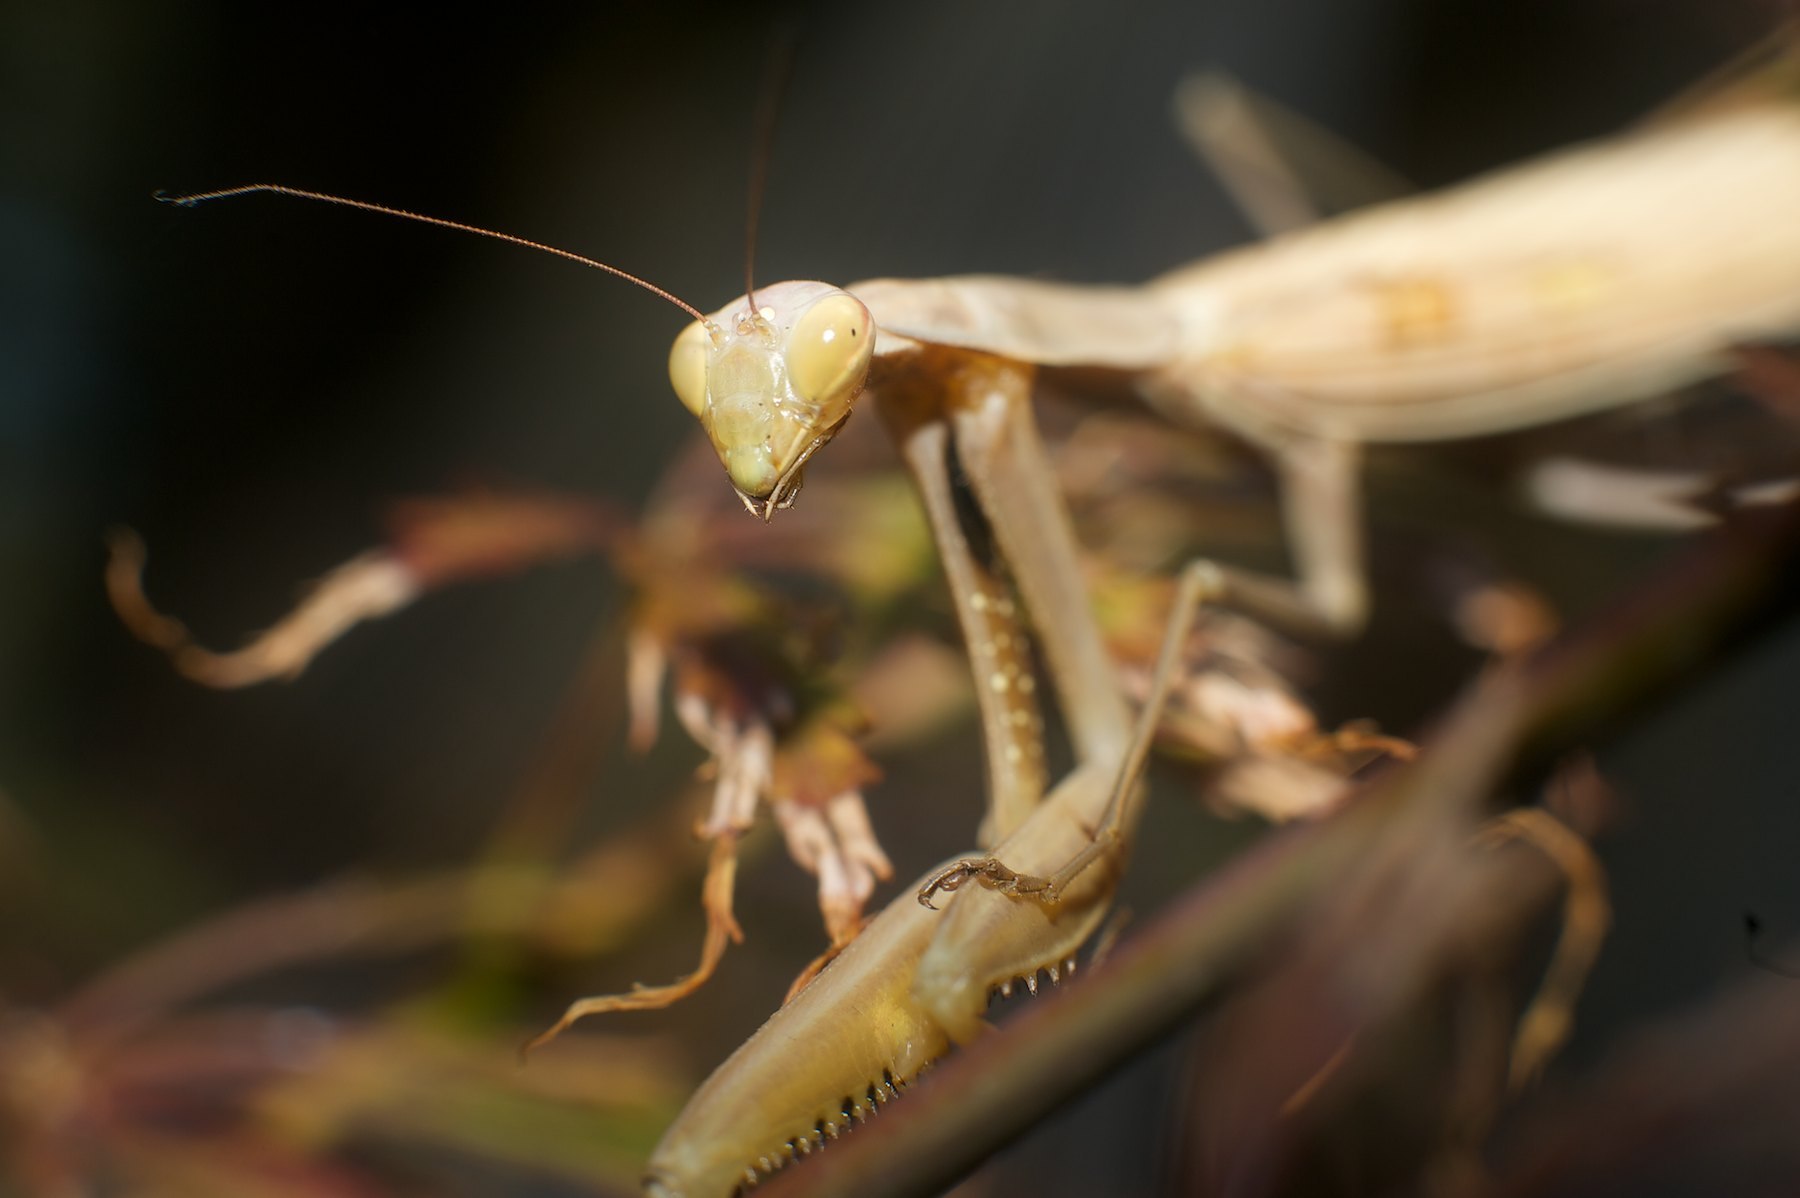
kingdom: Animalia
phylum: Arthropoda
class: Insecta
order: Mantodea
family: Mantidae
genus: Mantis
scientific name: Mantis religiosa
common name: Praying mantis
